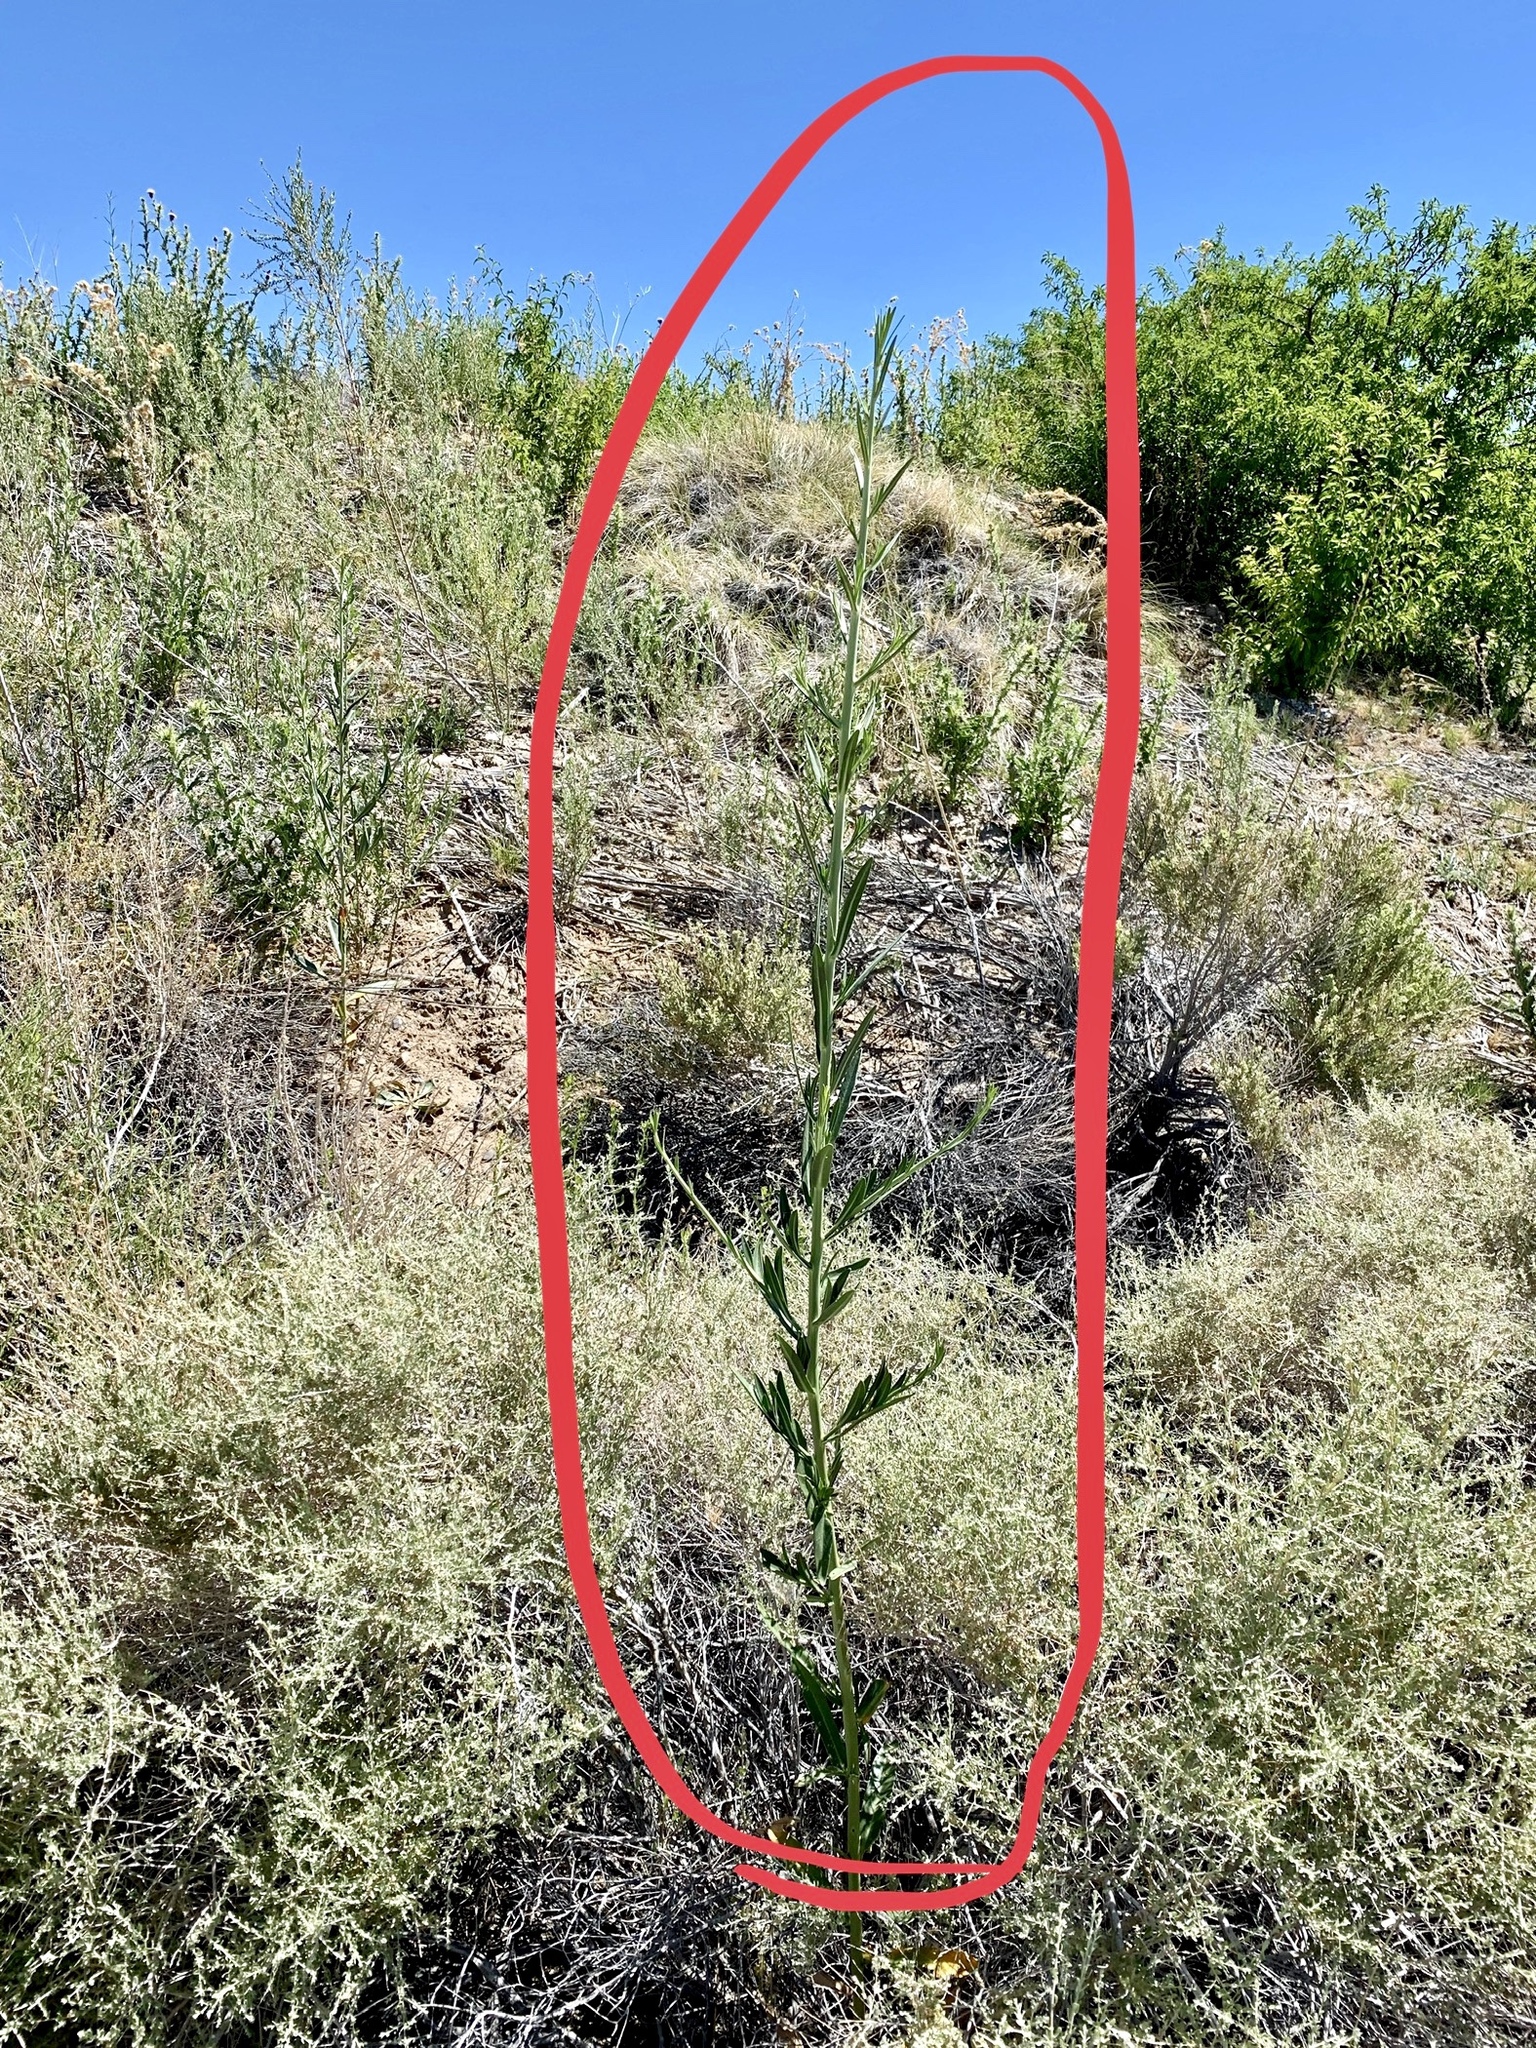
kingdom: Plantae
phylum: Tracheophyta
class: Magnoliopsida
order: Brassicales
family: Brassicaceae
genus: Thelypodium
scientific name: Thelypodium integrifolium
